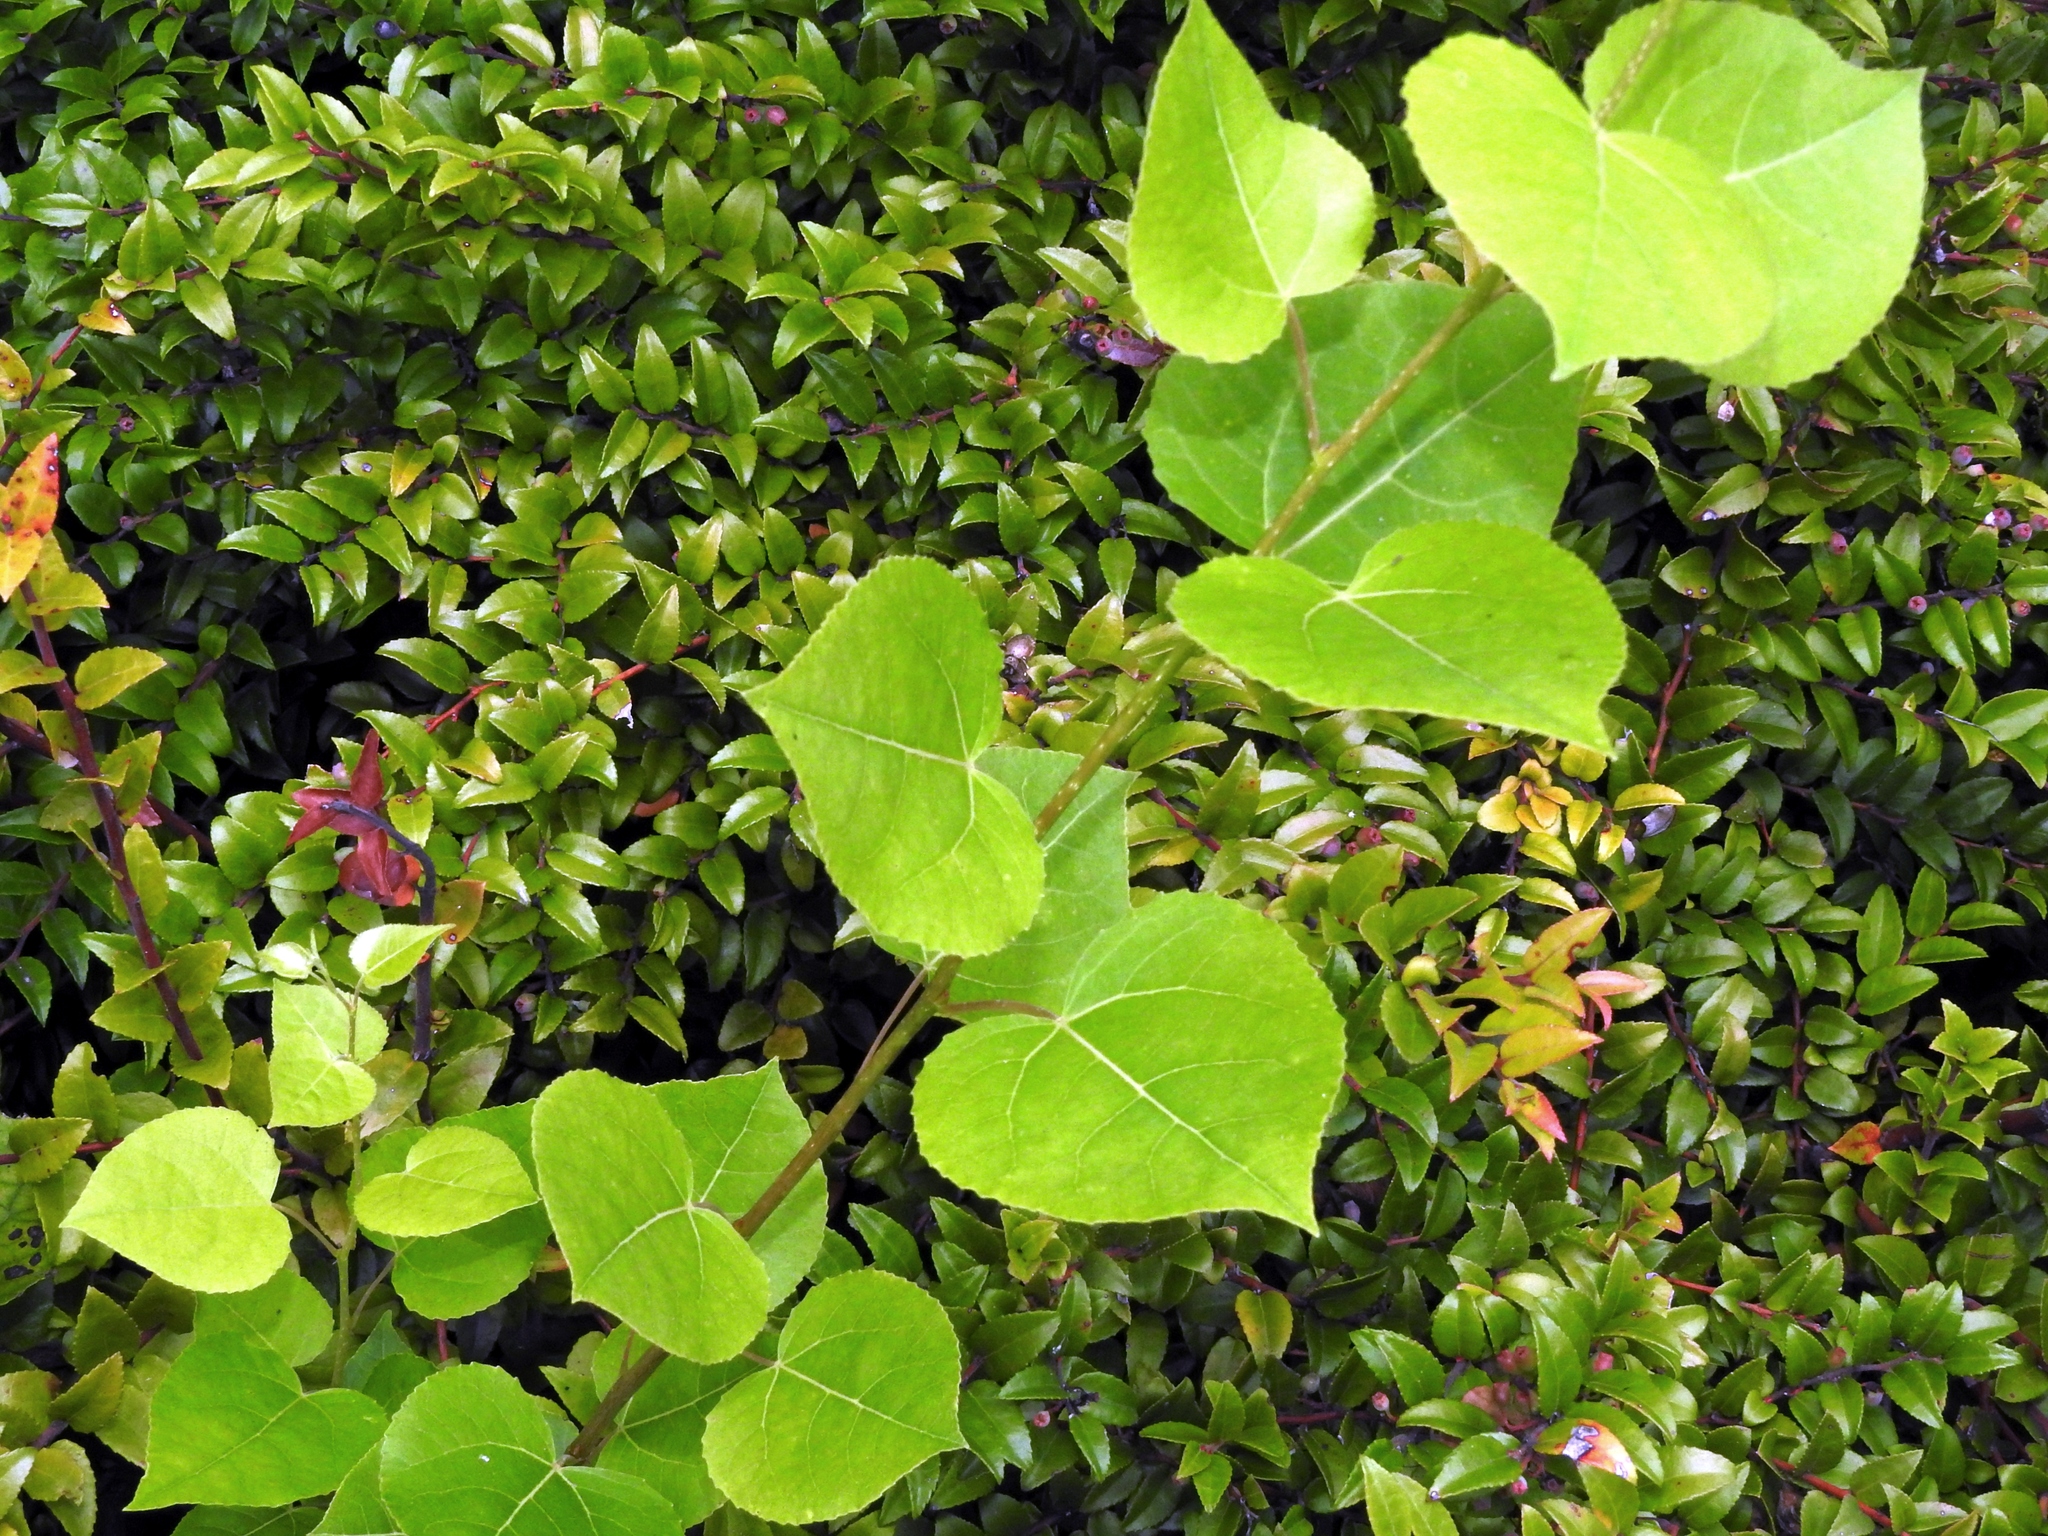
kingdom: Plantae
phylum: Tracheophyta
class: Magnoliopsida
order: Malpighiales
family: Salicaceae
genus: Populus
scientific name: Populus tremuloides
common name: Quaking aspen
